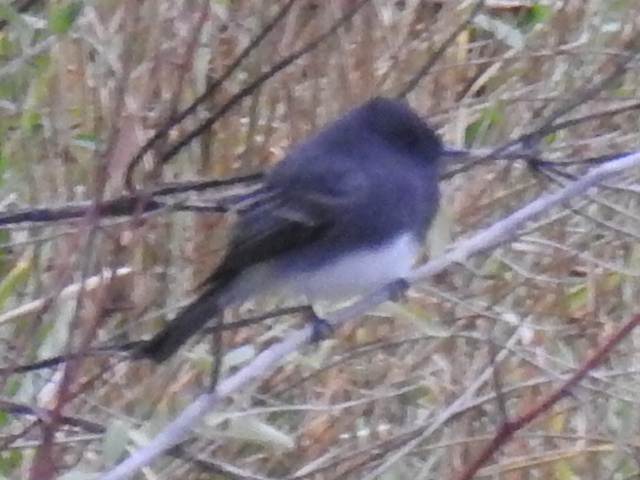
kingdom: Animalia
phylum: Chordata
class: Aves
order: Passeriformes
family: Tyrannidae
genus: Sayornis
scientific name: Sayornis nigricans
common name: Black phoebe
